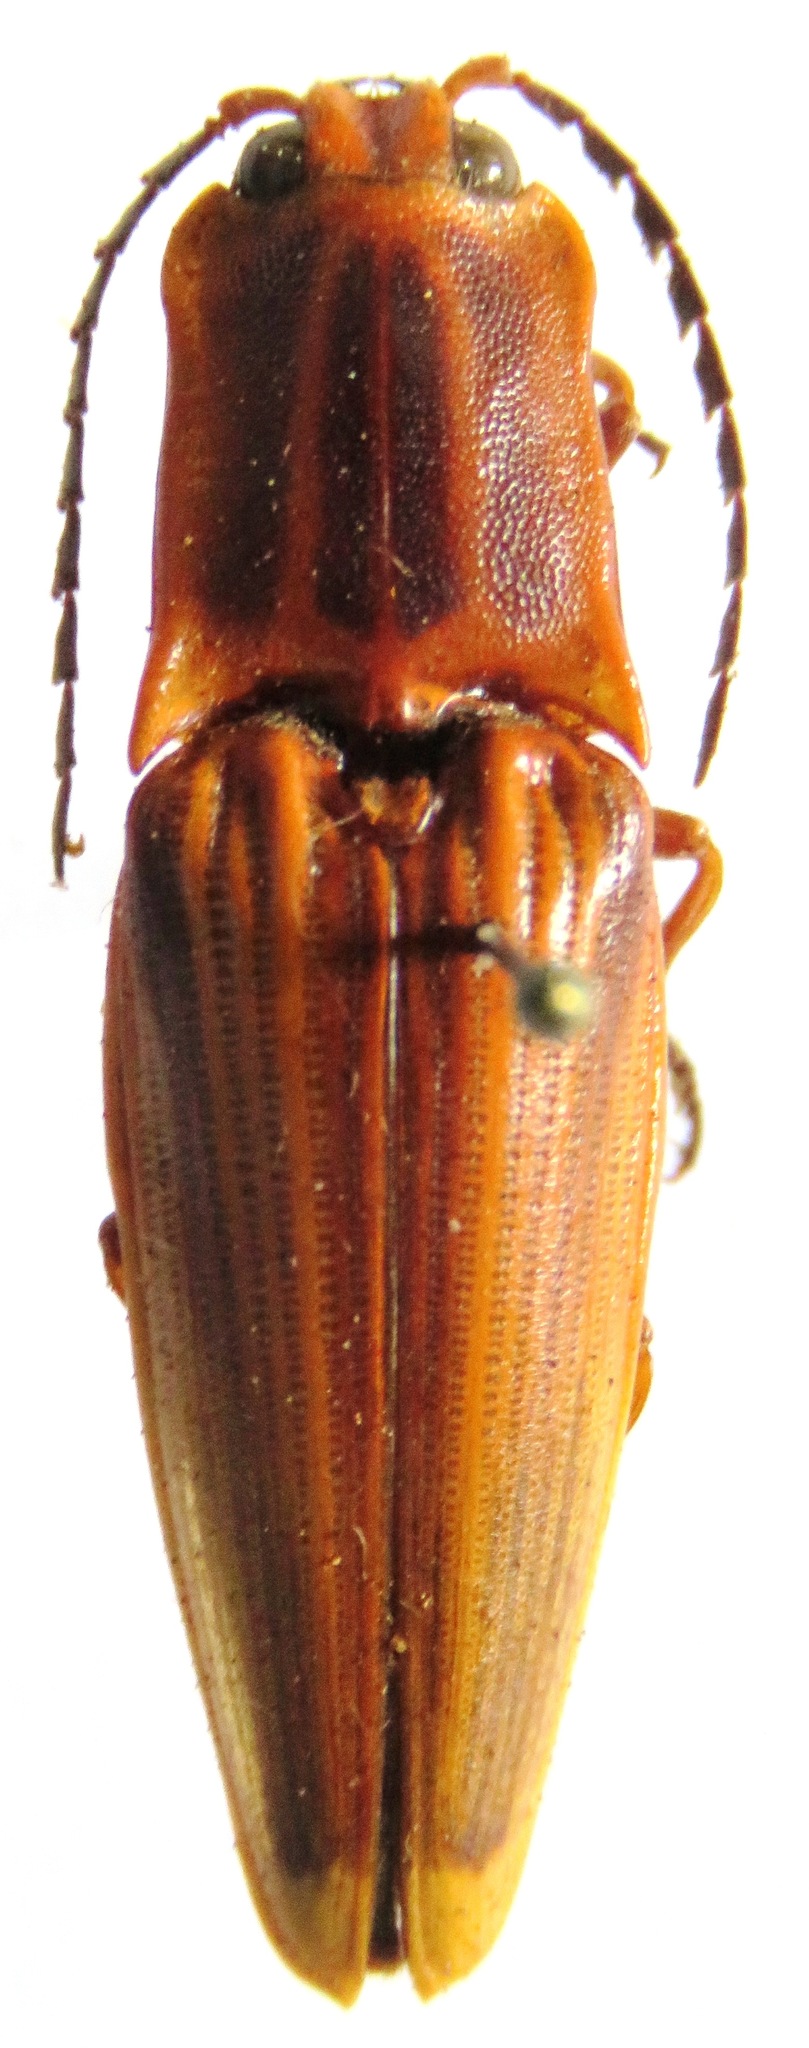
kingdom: Animalia
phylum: Arthropoda
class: Insecta
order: Coleoptera
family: Elateridae
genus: Semiotus
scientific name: Semiotus ligneus
